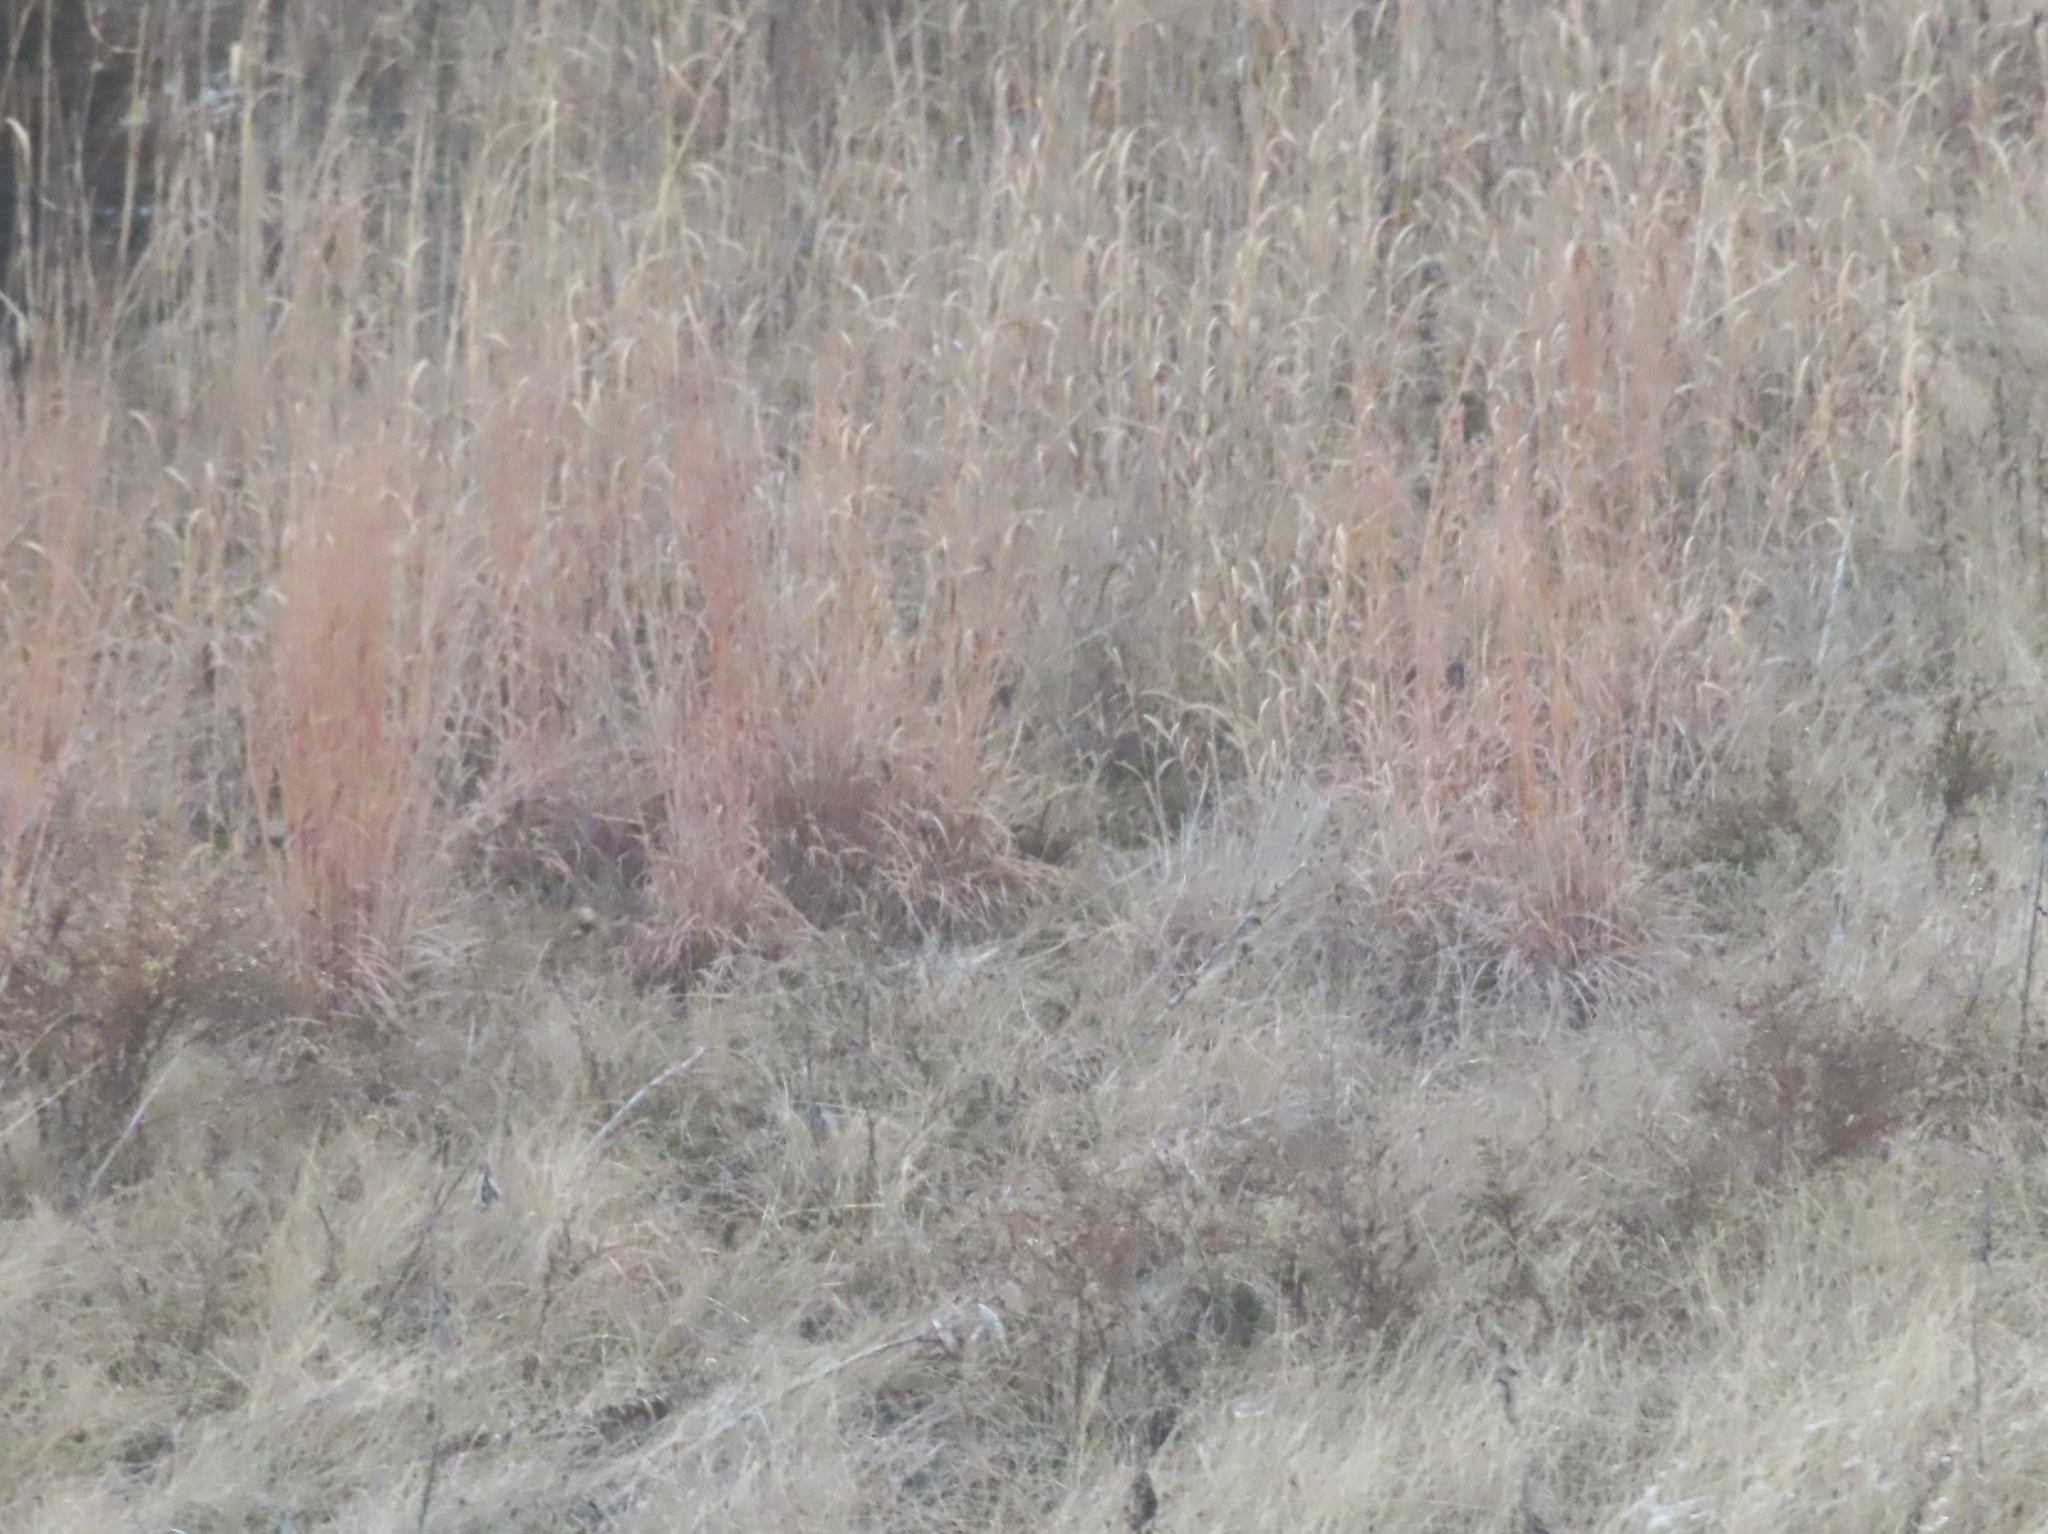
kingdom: Plantae
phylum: Tracheophyta
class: Liliopsida
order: Poales
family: Poaceae
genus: Schizachyrium
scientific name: Schizachyrium scoparium
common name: Little bluestem
